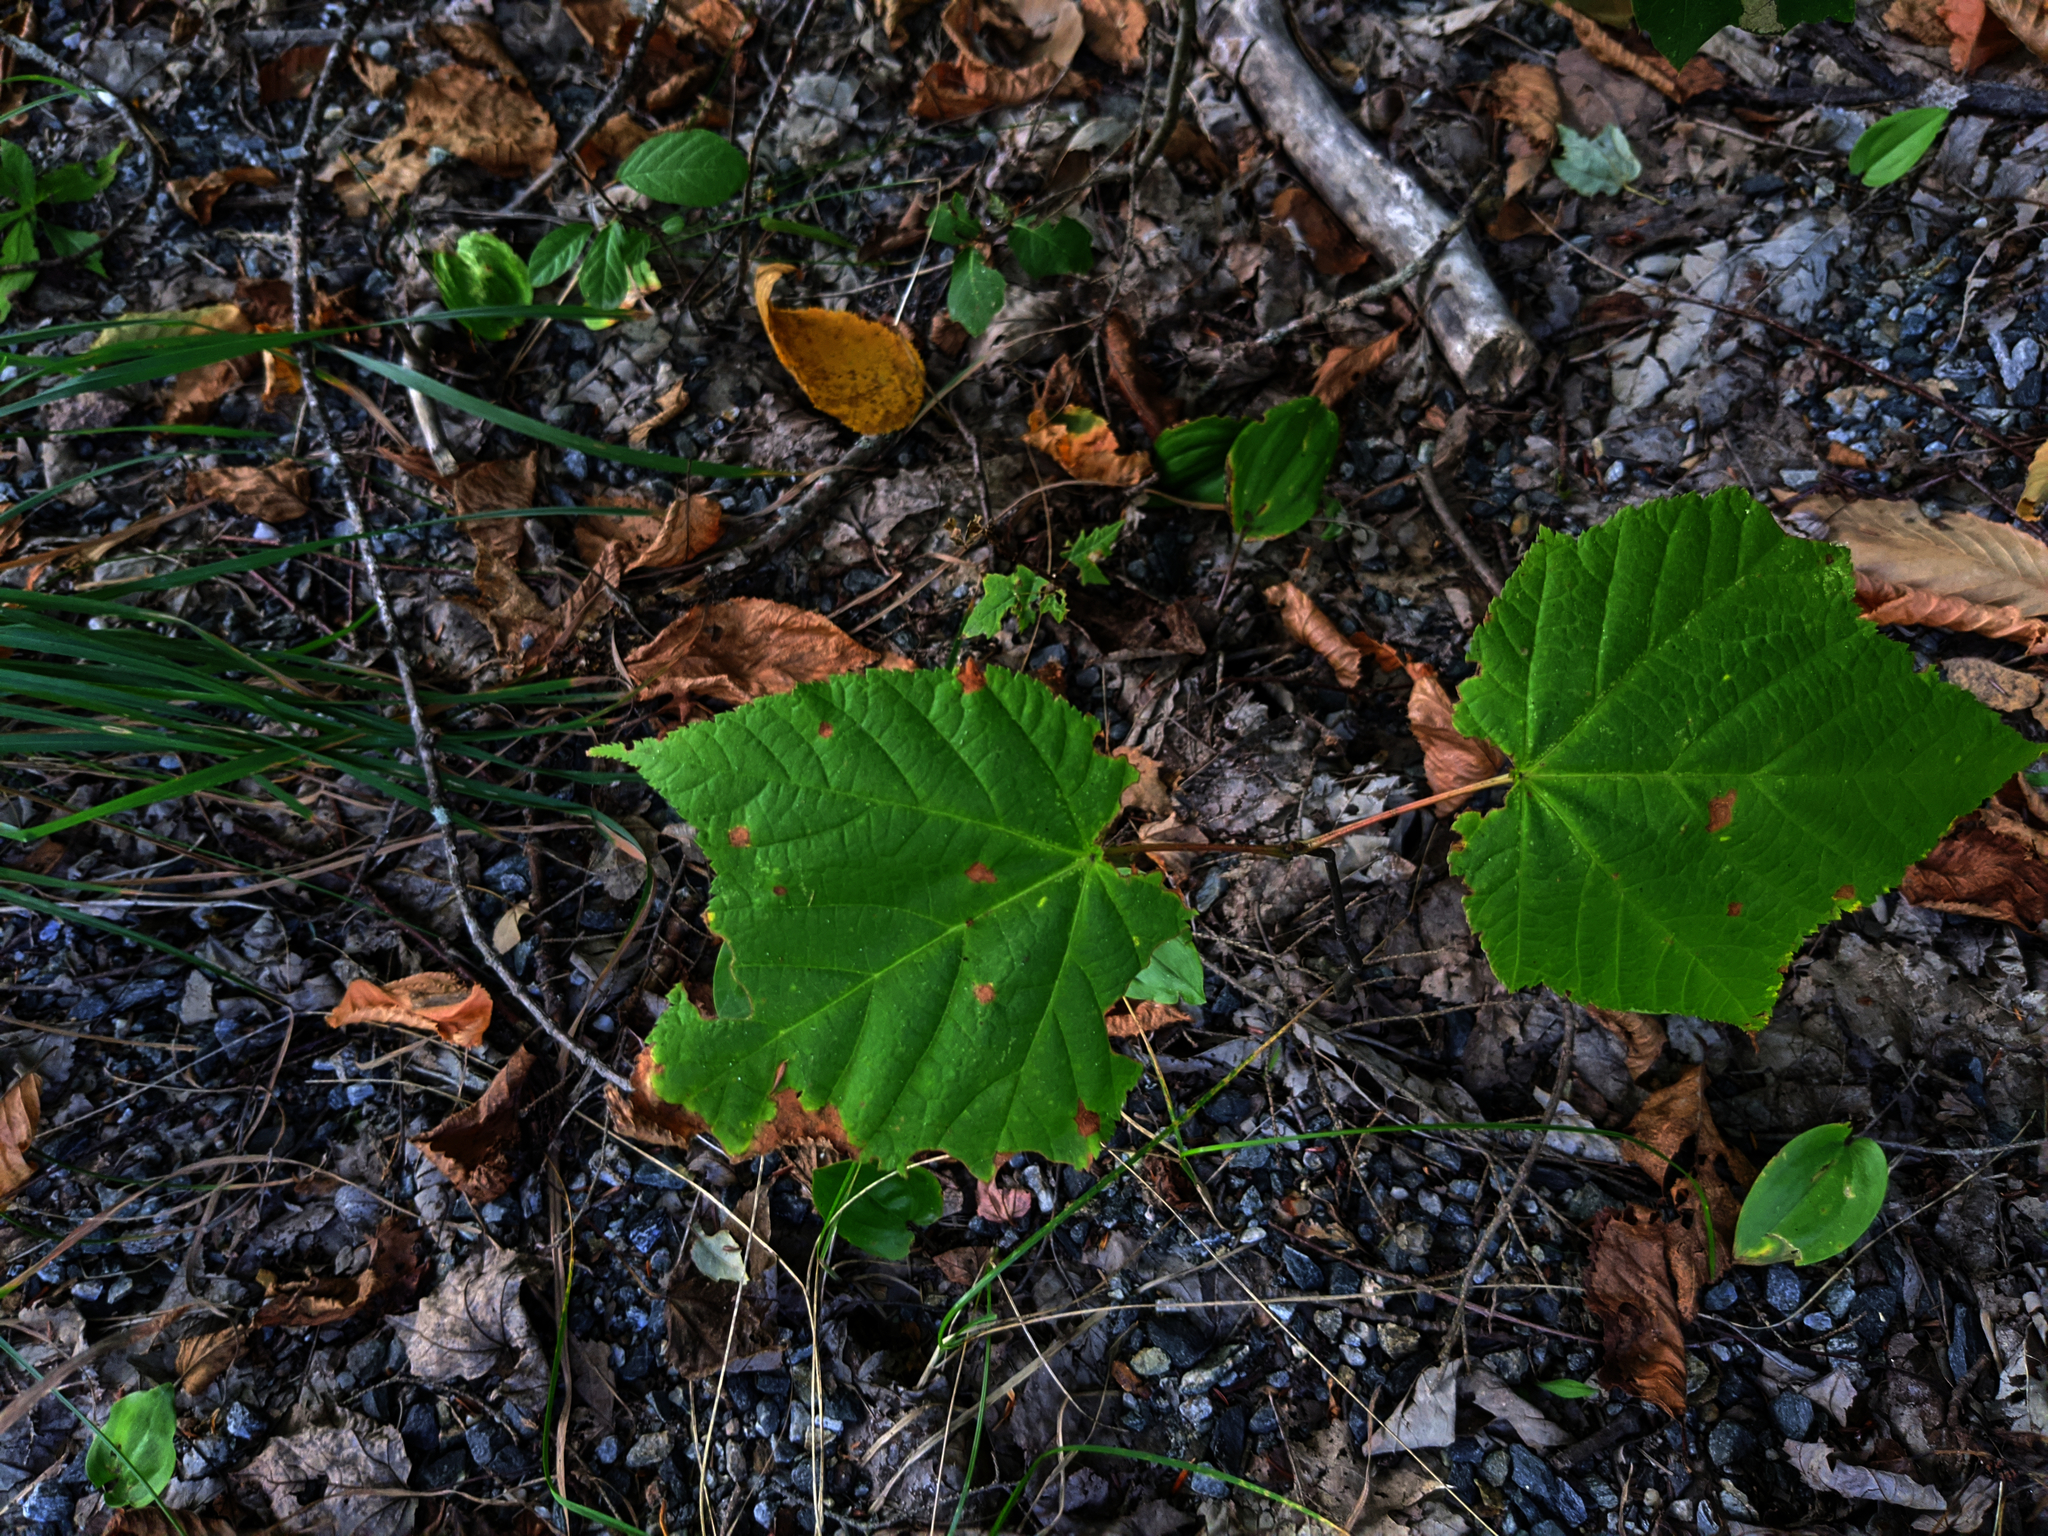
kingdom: Plantae
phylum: Tracheophyta
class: Liliopsida
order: Asparagales
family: Asparagaceae
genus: Maianthemum
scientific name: Maianthemum canadense
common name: False lily-of-the-valley
